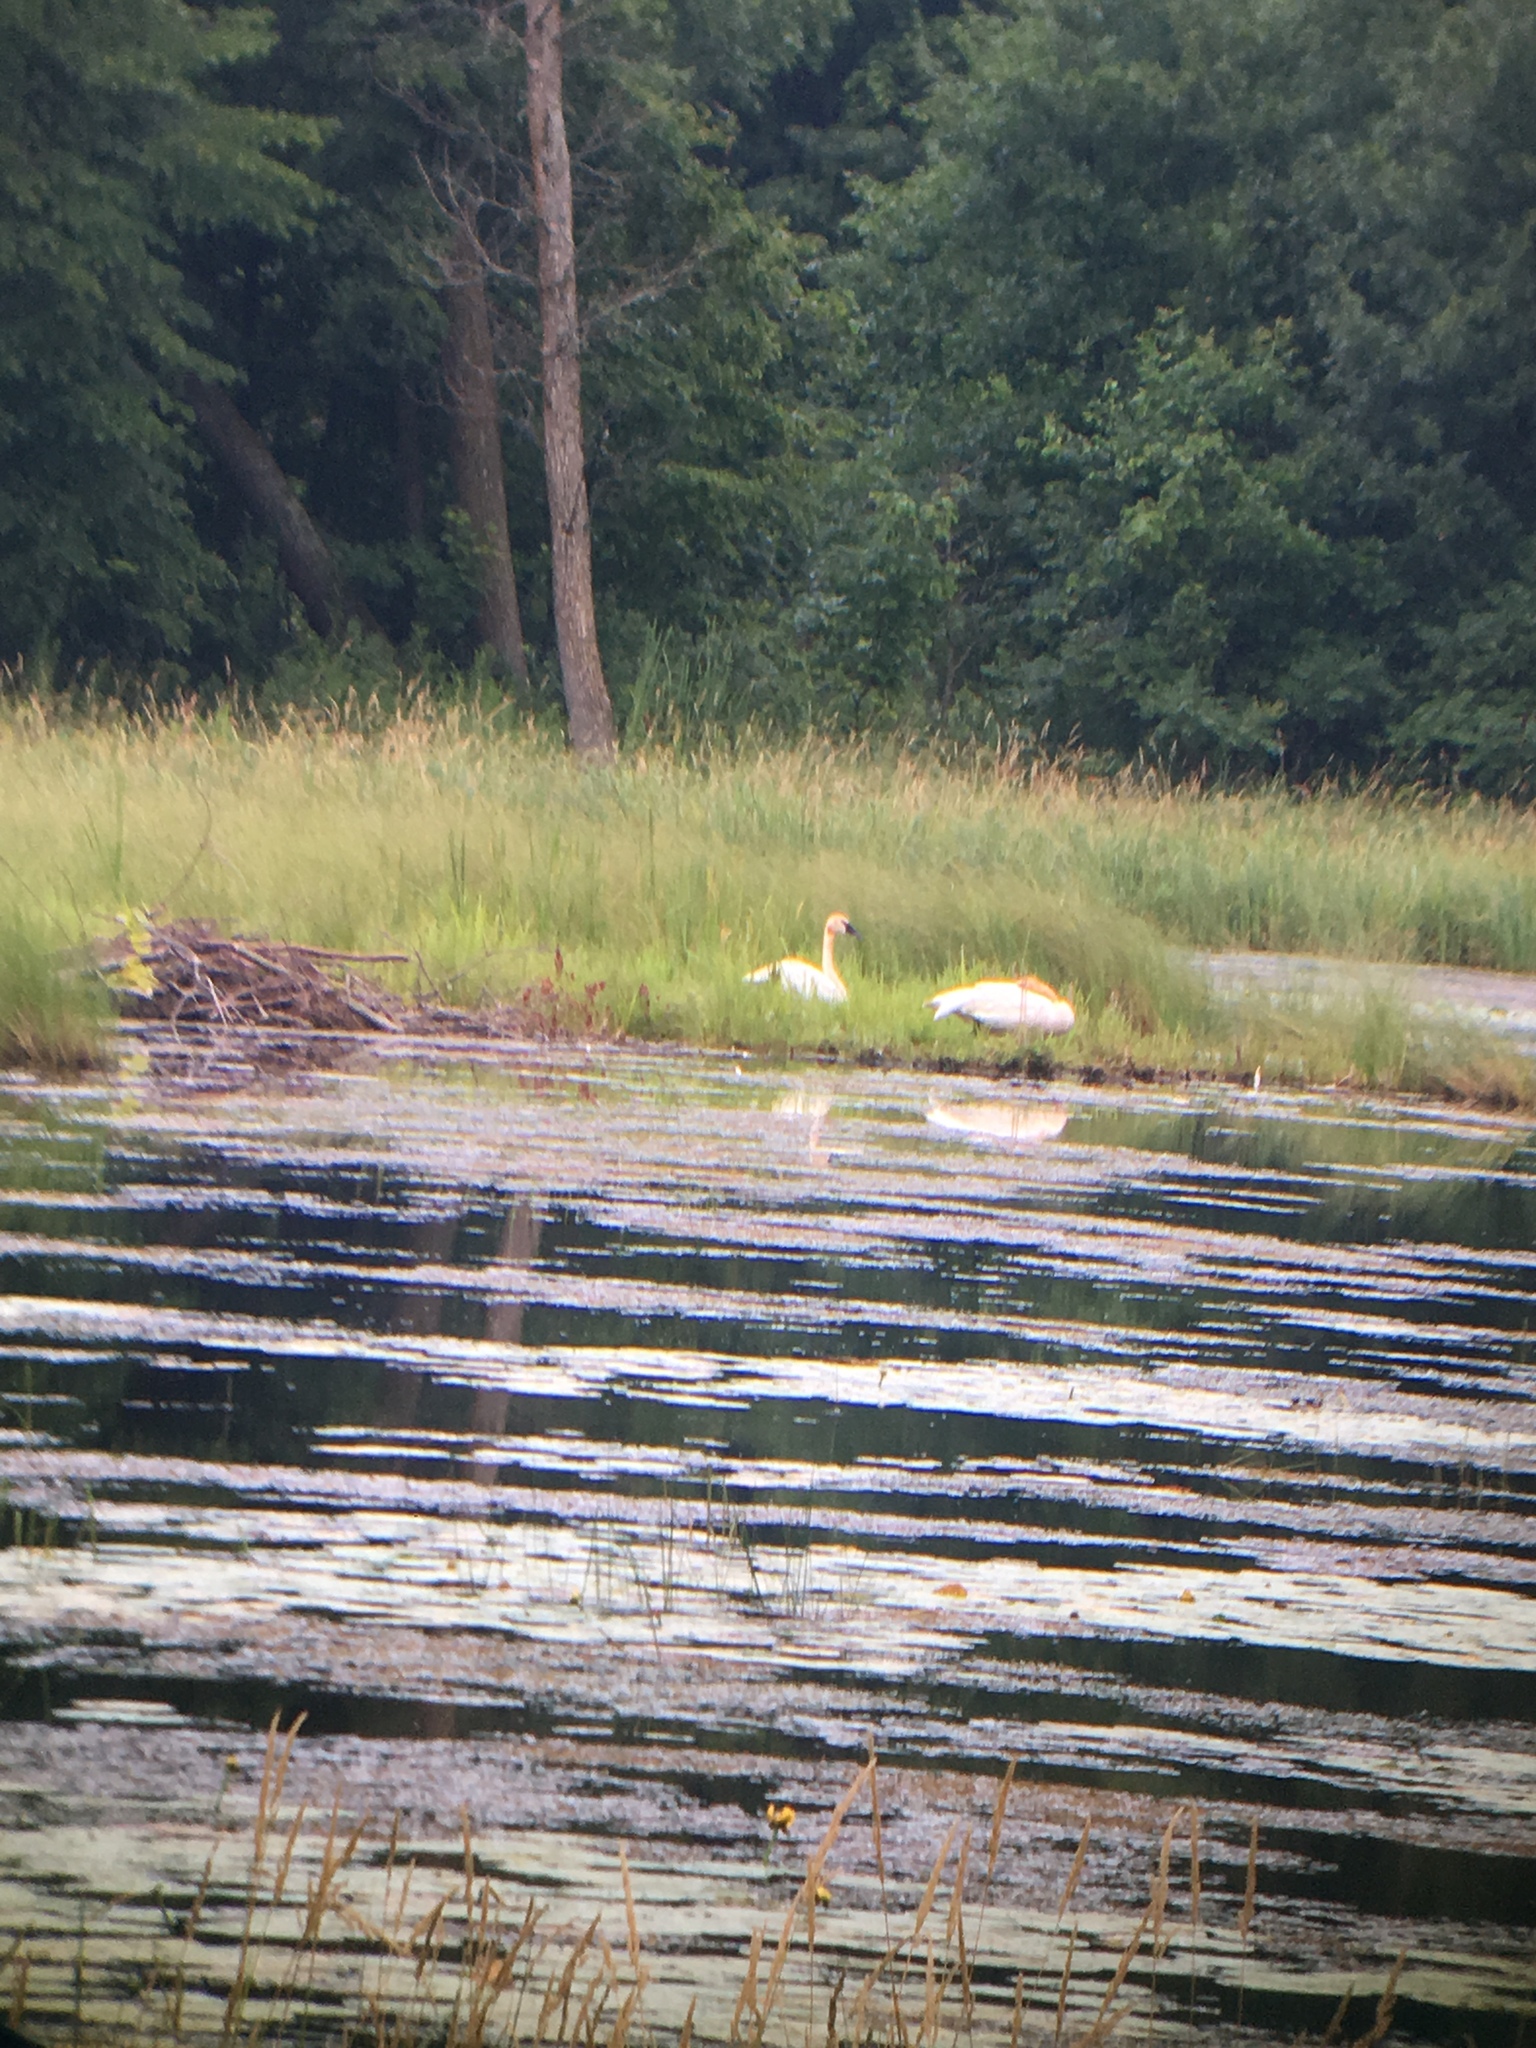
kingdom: Animalia
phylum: Chordata
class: Aves
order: Anseriformes
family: Anatidae
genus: Cygnus
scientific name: Cygnus buccinator
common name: Trumpeter swan
